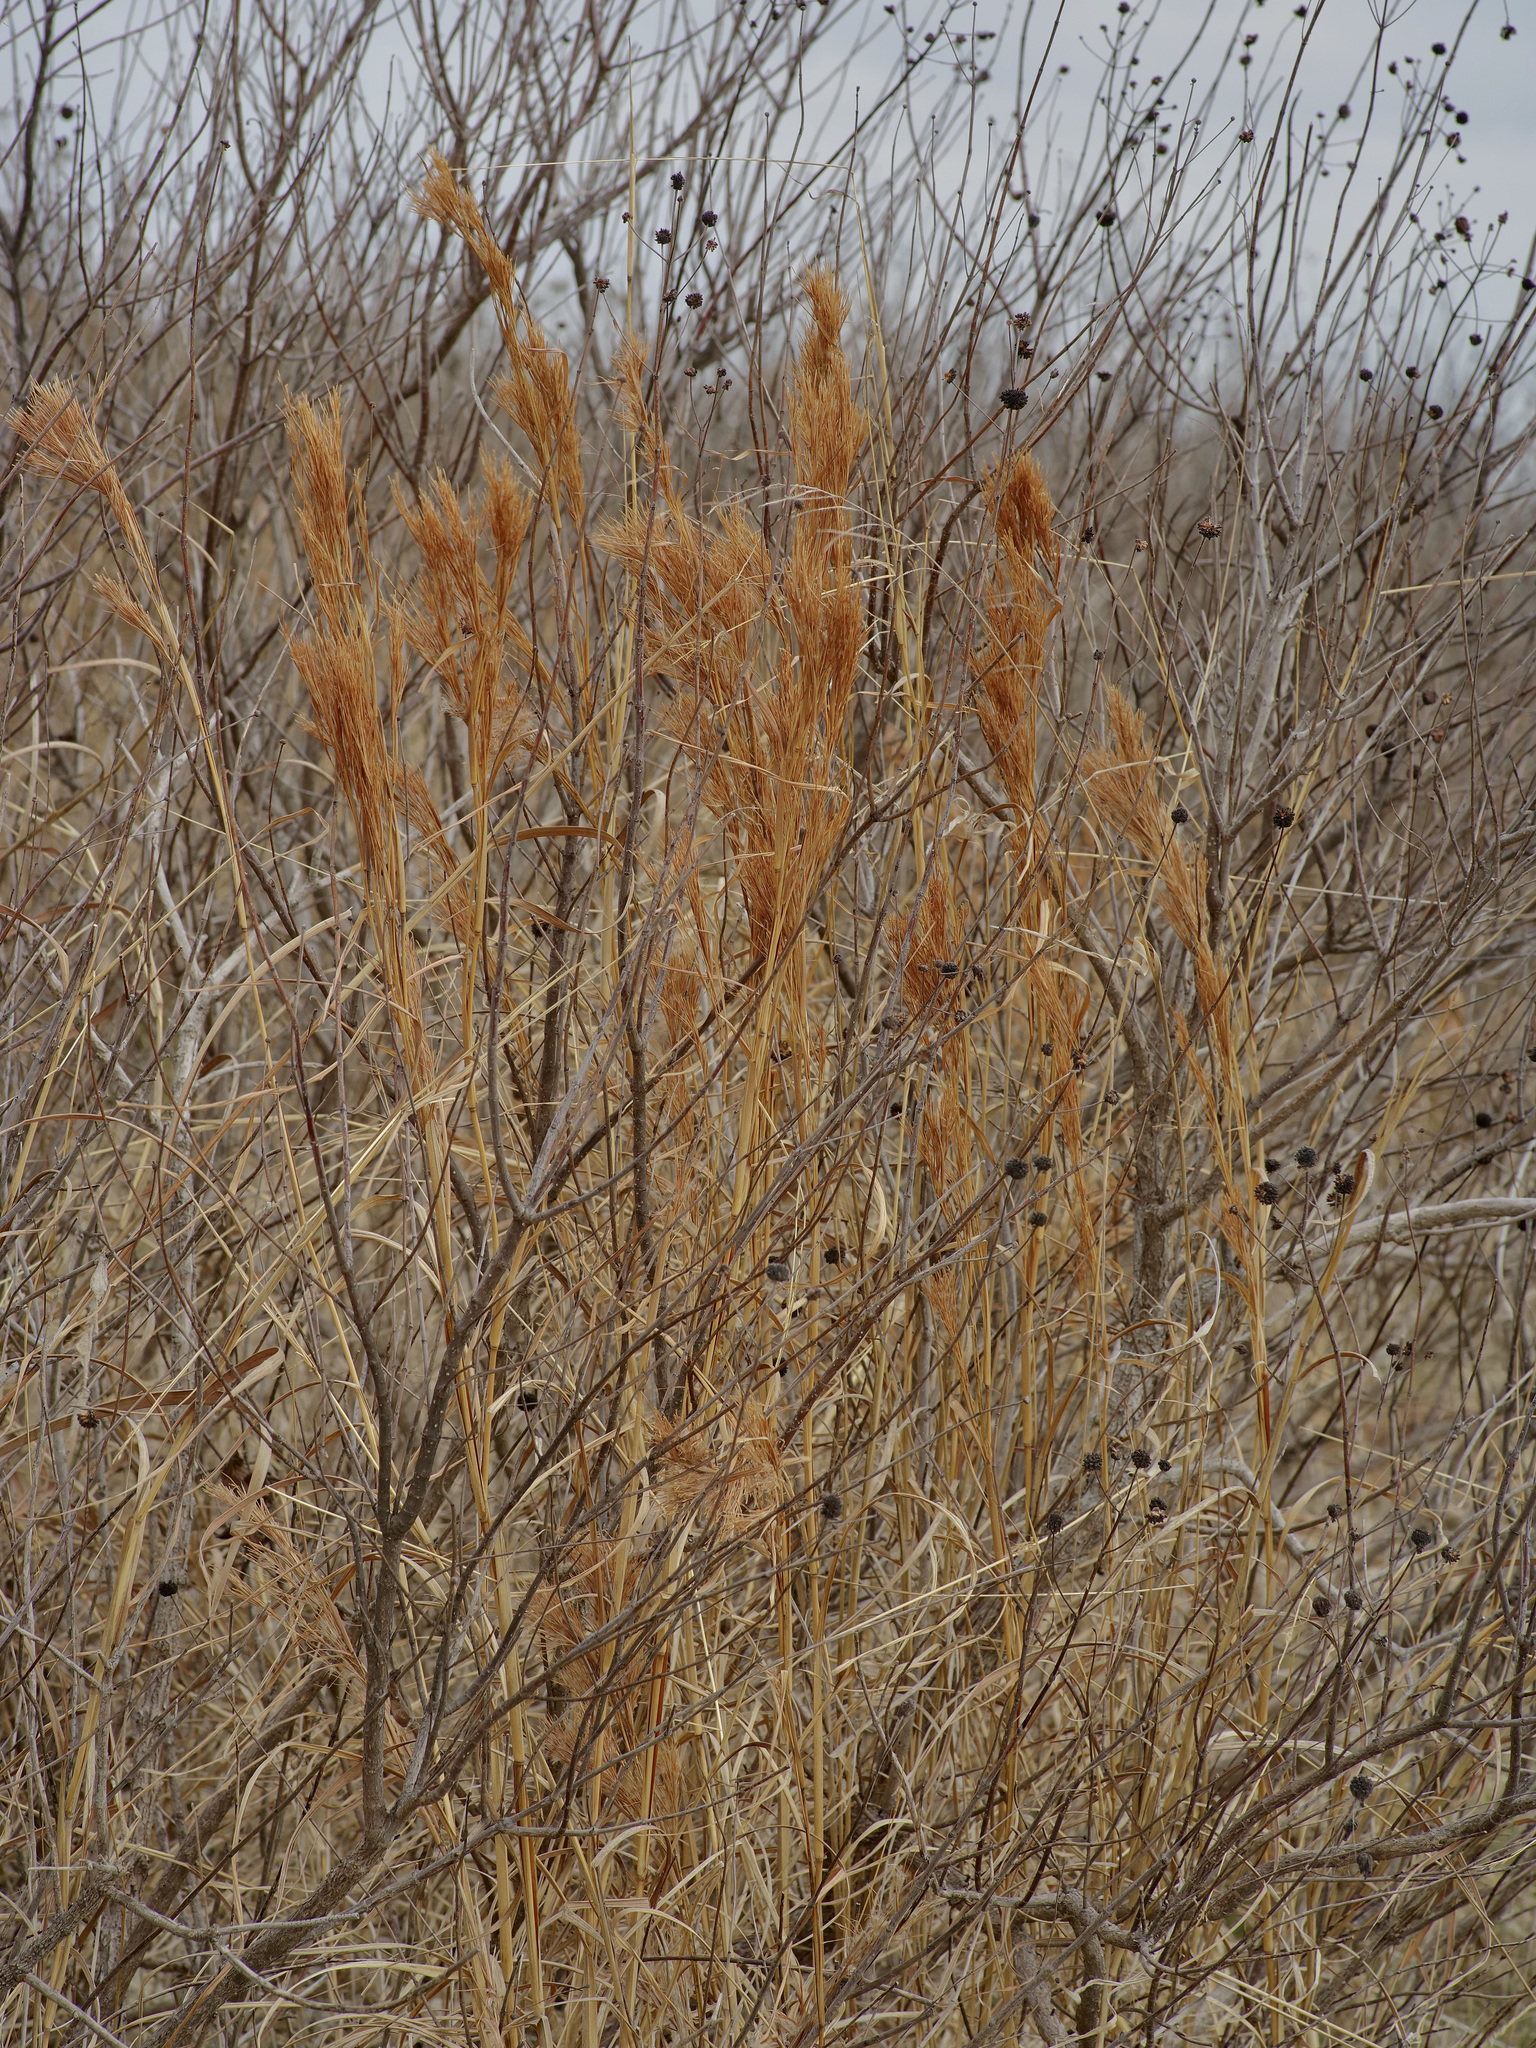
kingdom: Plantae
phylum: Tracheophyta
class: Liliopsida
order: Poales
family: Poaceae
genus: Andropogon
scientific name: Andropogon tenuispatheus
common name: Bushy bluestem
